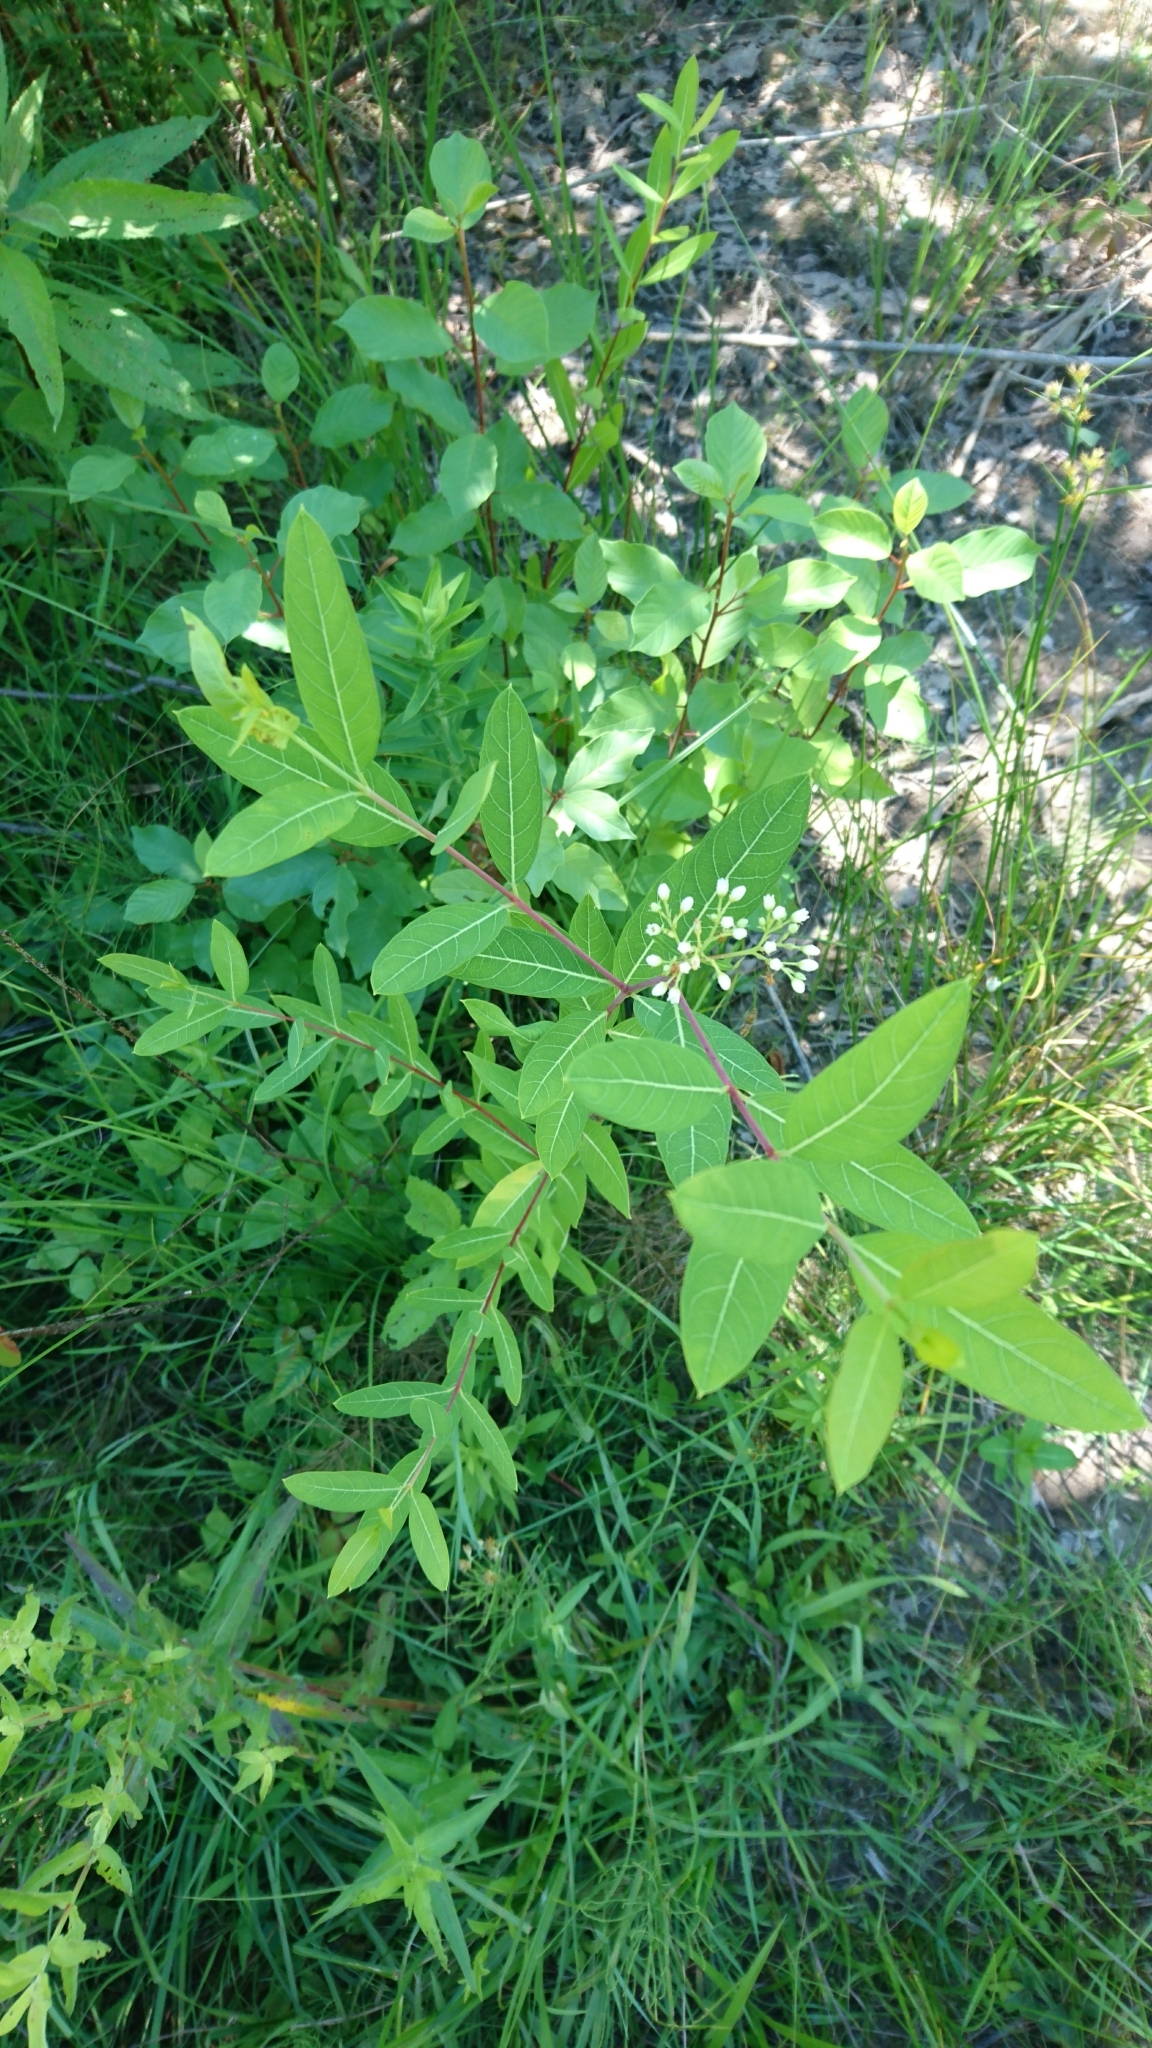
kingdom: Plantae
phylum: Tracheophyta
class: Magnoliopsida
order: Gentianales
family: Apocynaceae
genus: Apocynum
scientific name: Apocynum cannabinum
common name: Hemp dogbane
